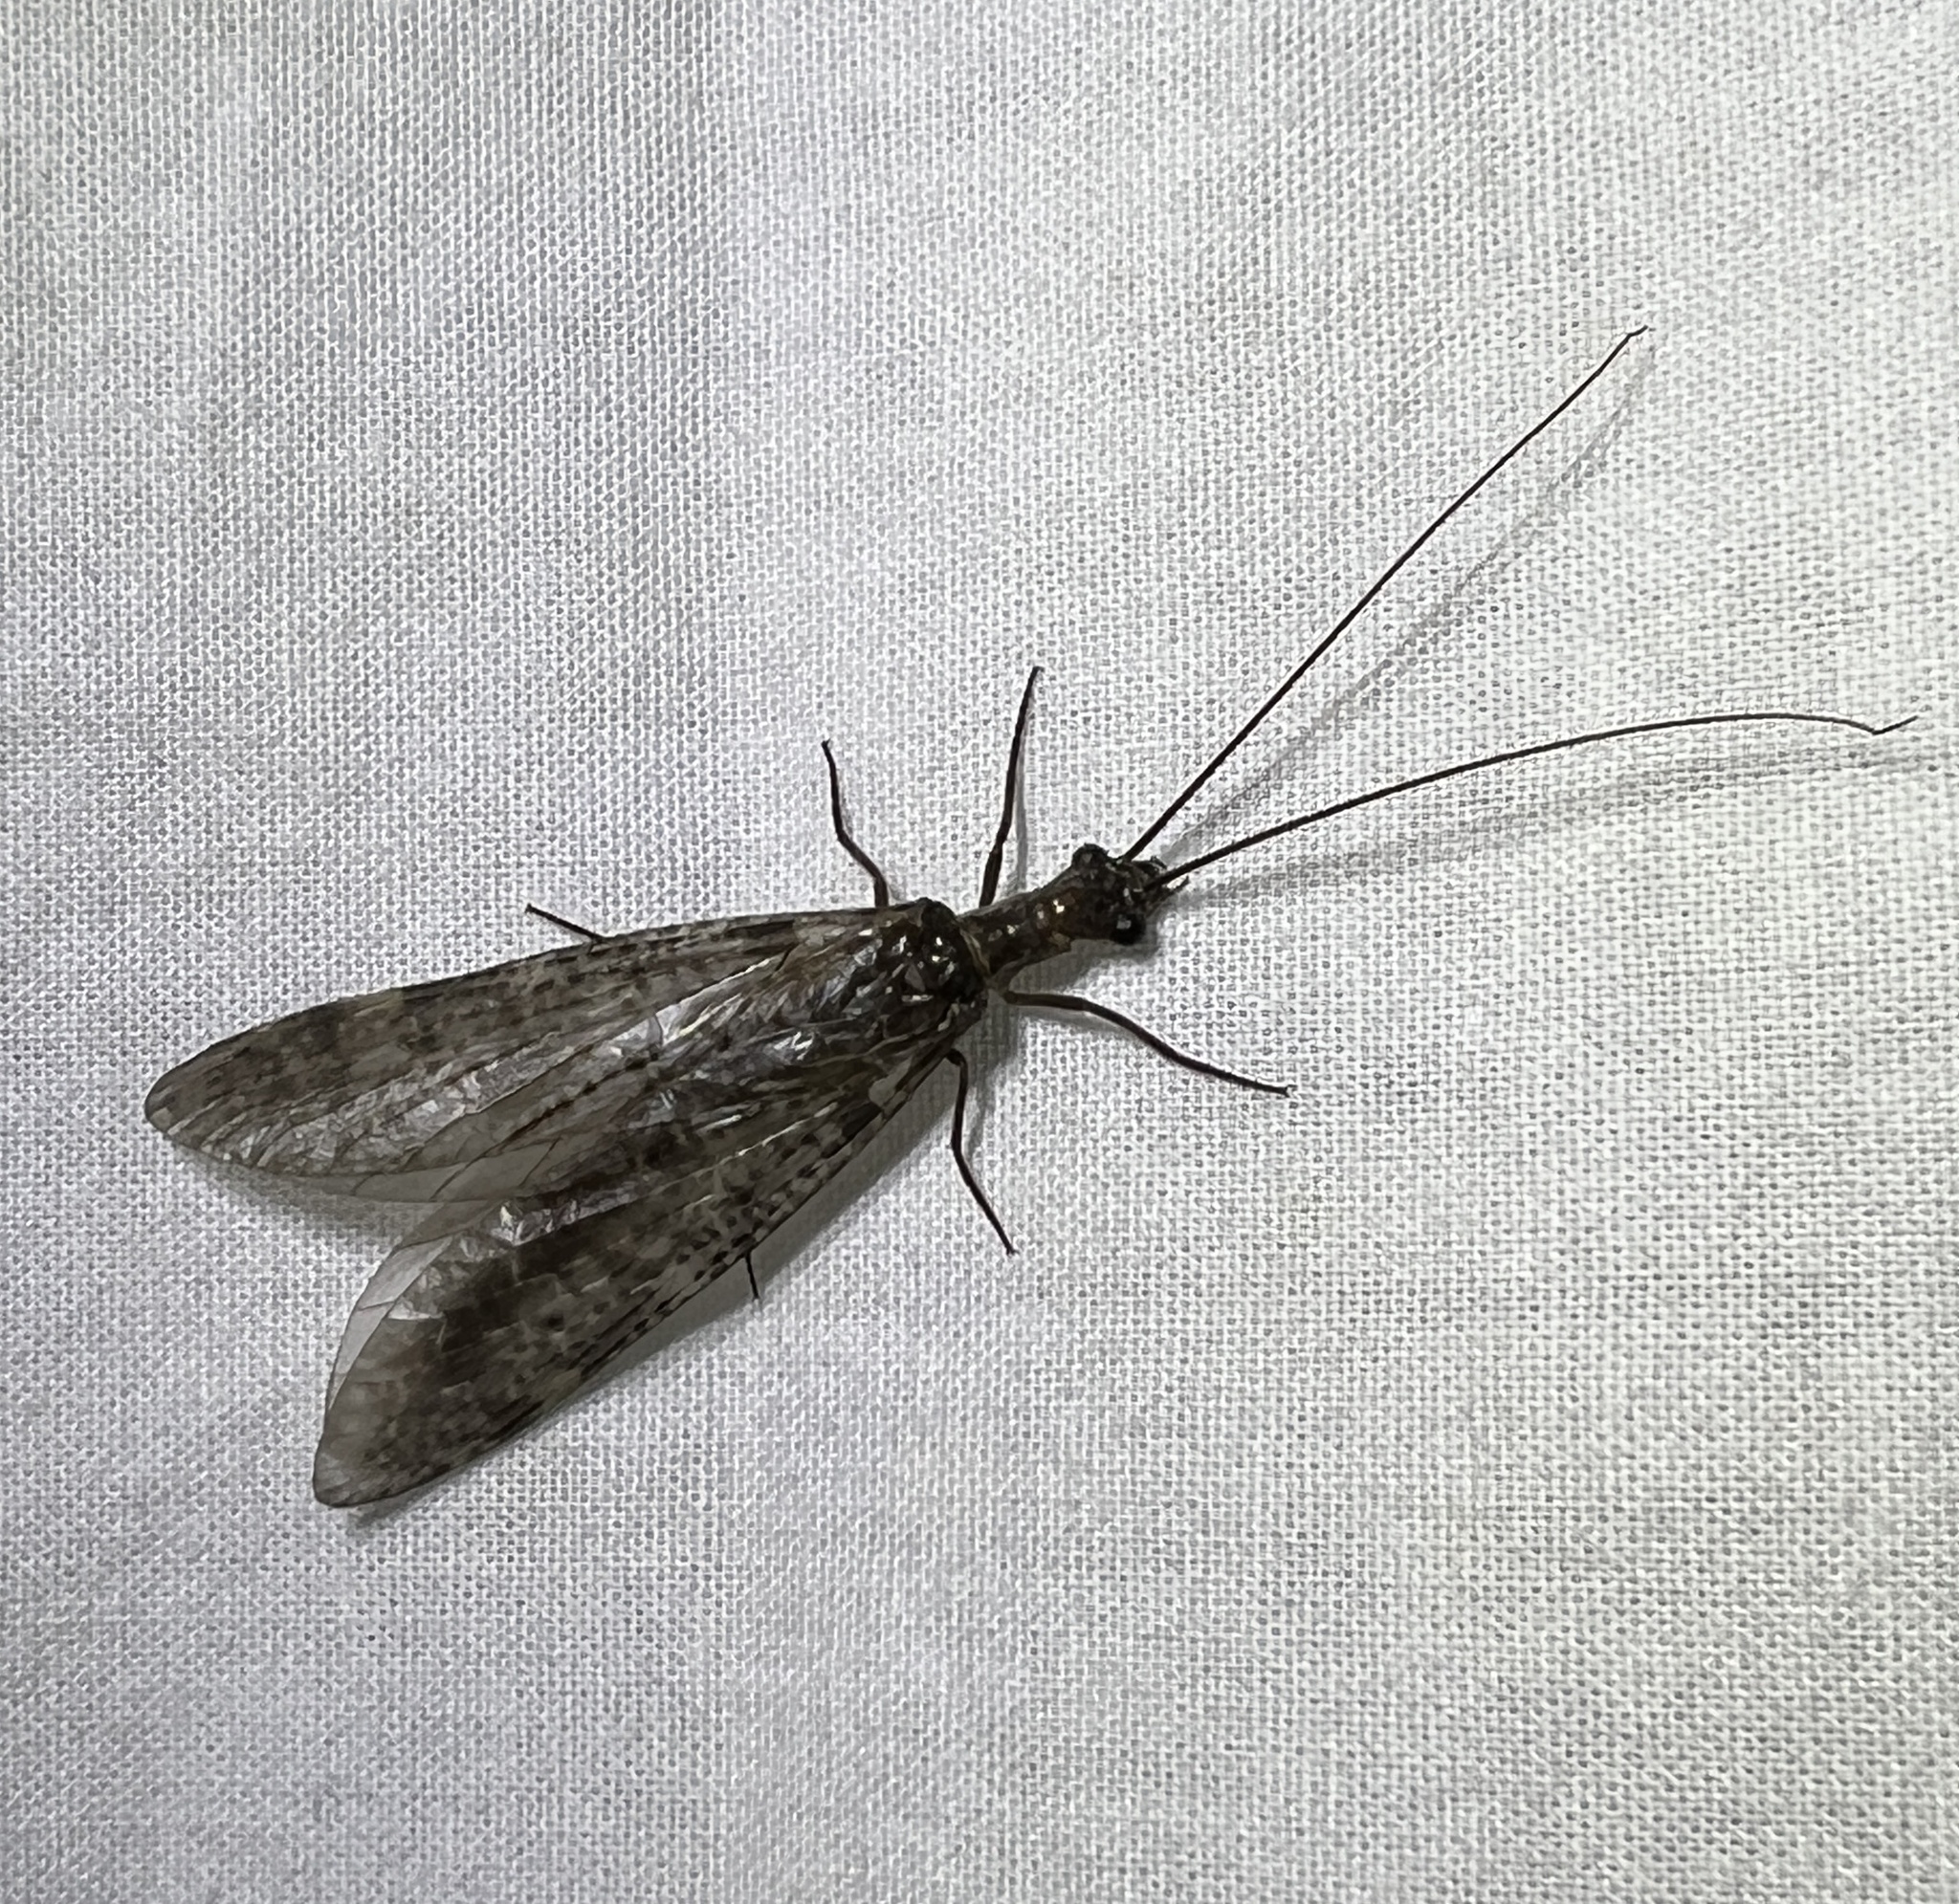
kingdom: Animalia
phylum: Arthropoda
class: Insecta
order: Megaloptera
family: Corydalidae
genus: Archichauliodes
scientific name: Archichauliodes diversus
